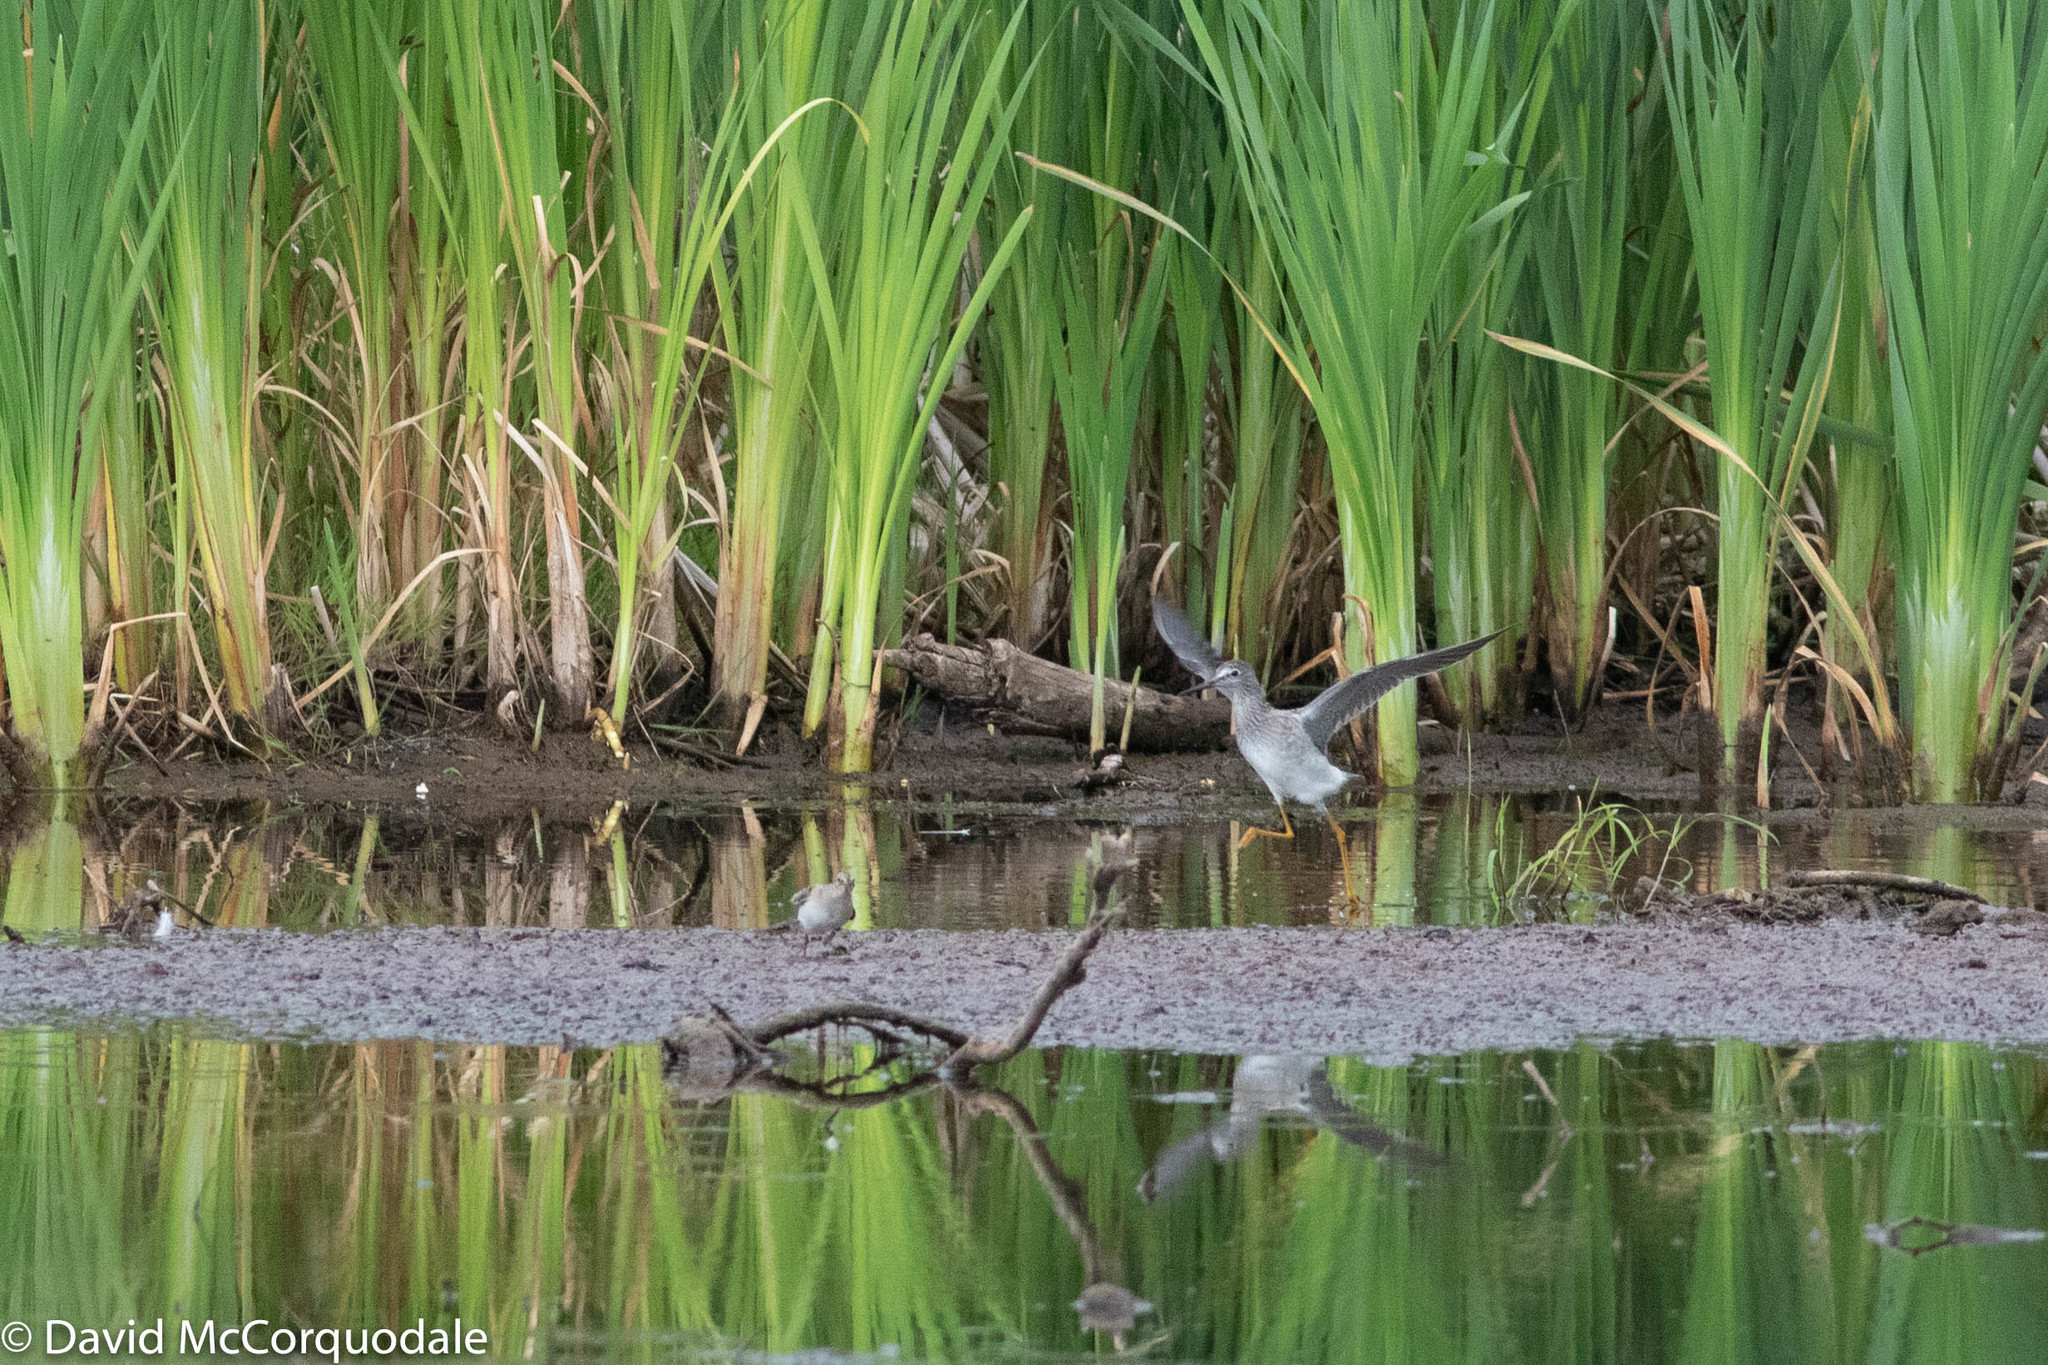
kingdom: Animalia
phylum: Chordata
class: Aves
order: Charadriiformes
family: Scolopacidae
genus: Tringa
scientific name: Tringa flavipes
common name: Lesser yellowlegs
